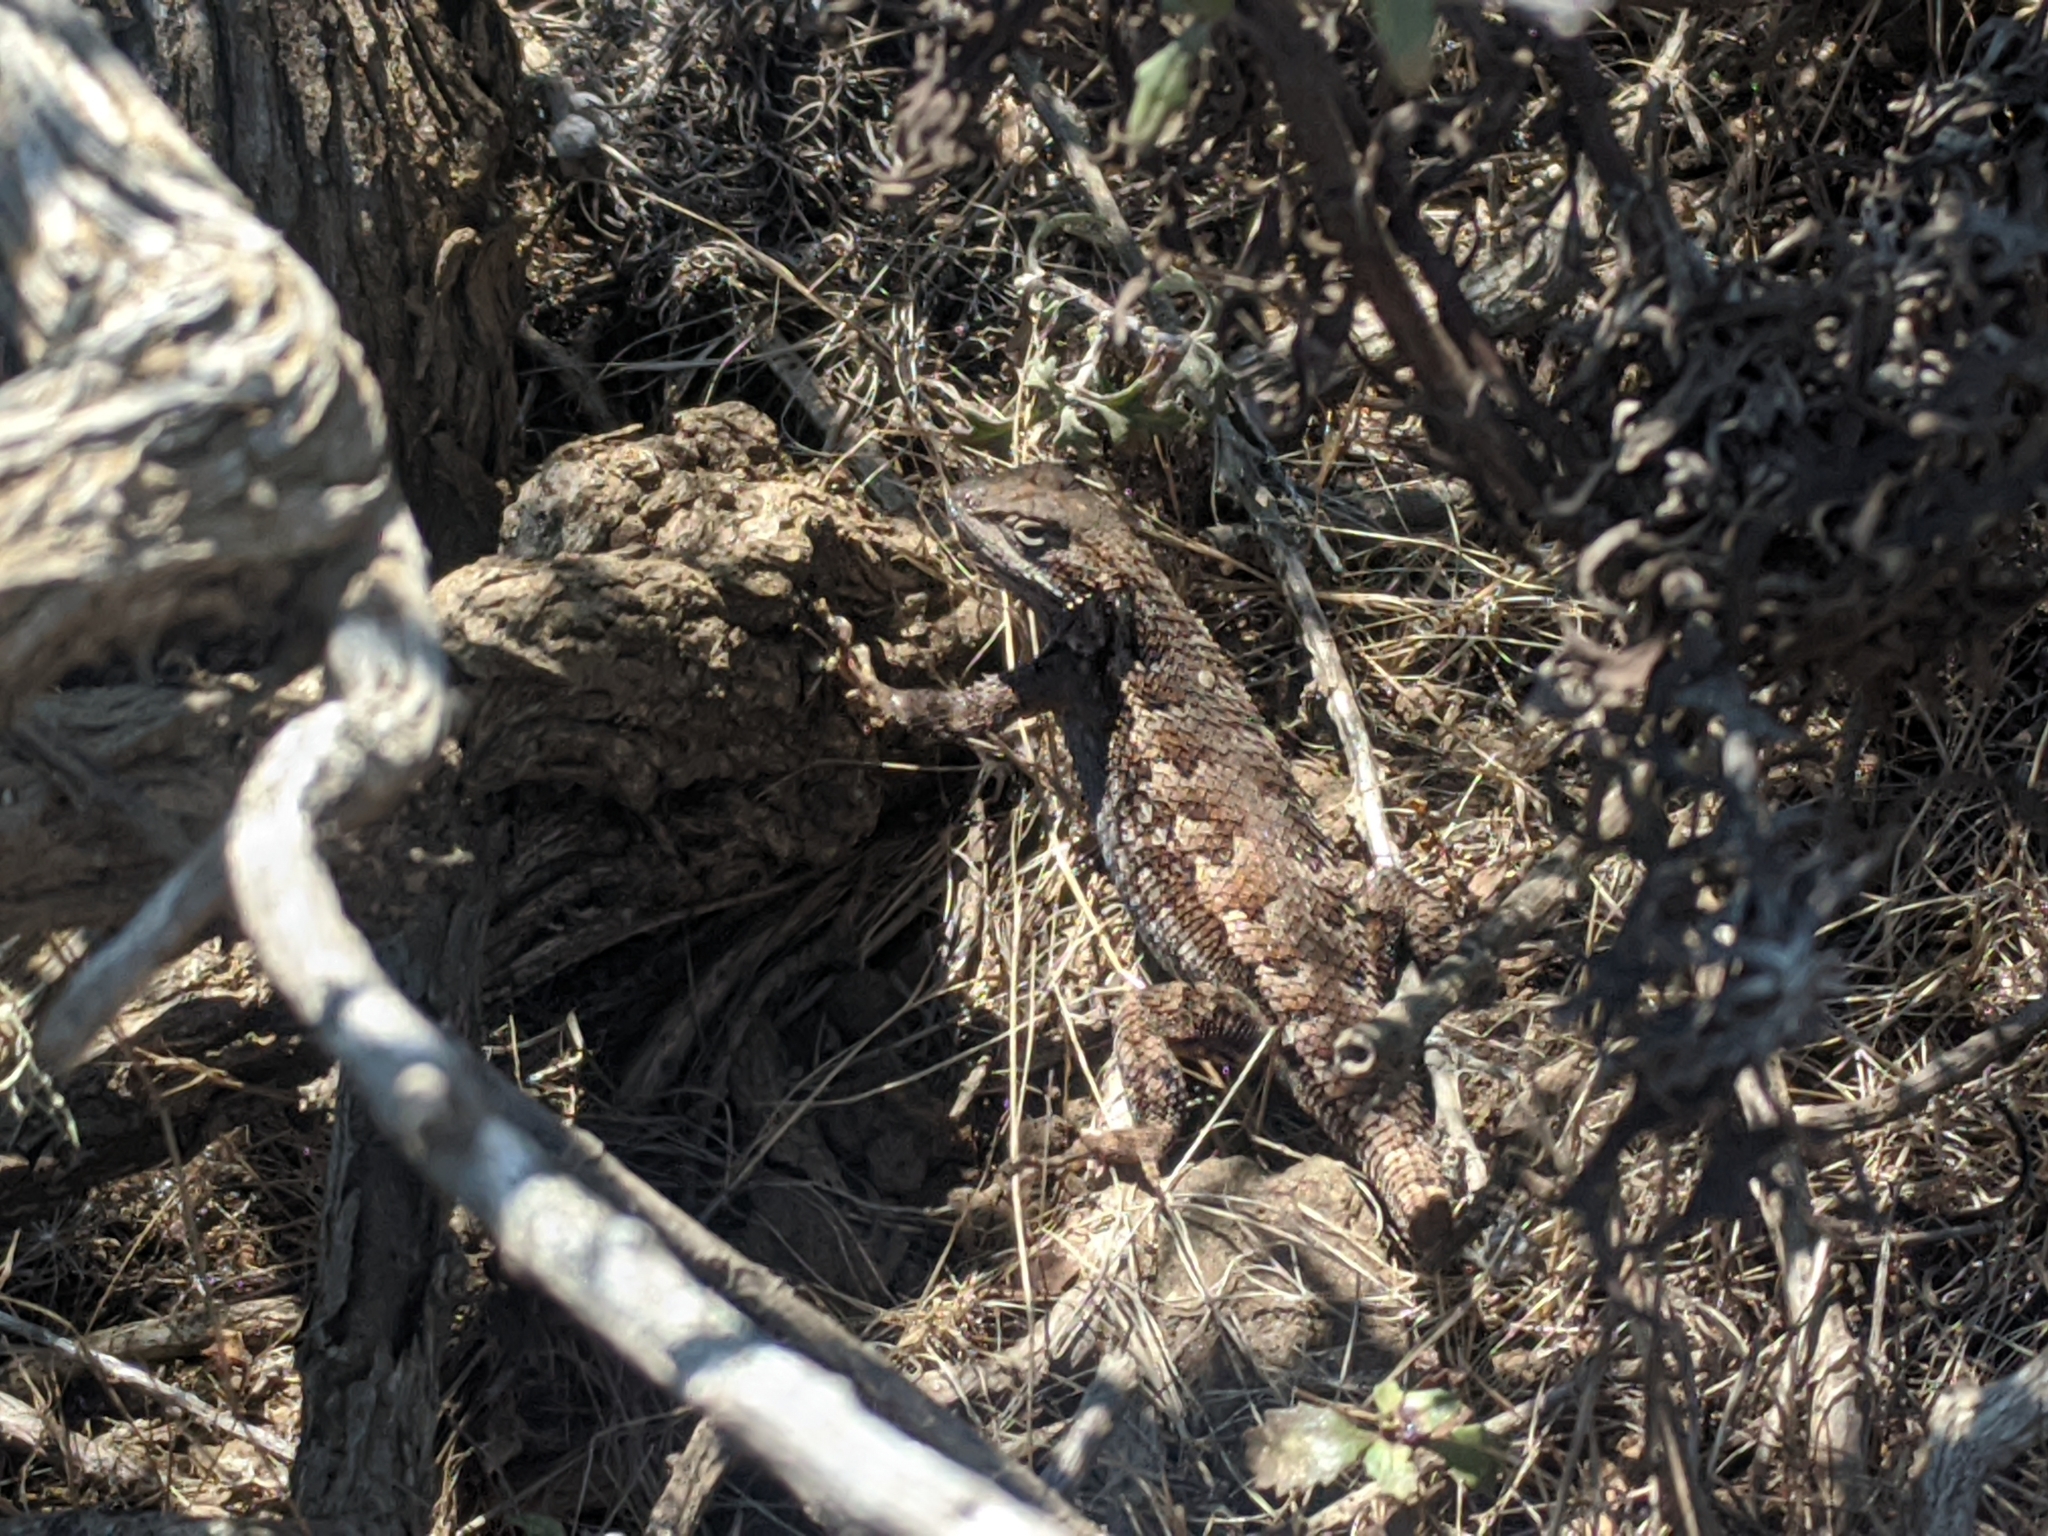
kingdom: Animalia
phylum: Chordata
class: Squamata
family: Phrynosomatidae
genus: Sceloporus
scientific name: Sceloporus occidentalis
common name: Western fence lizard
